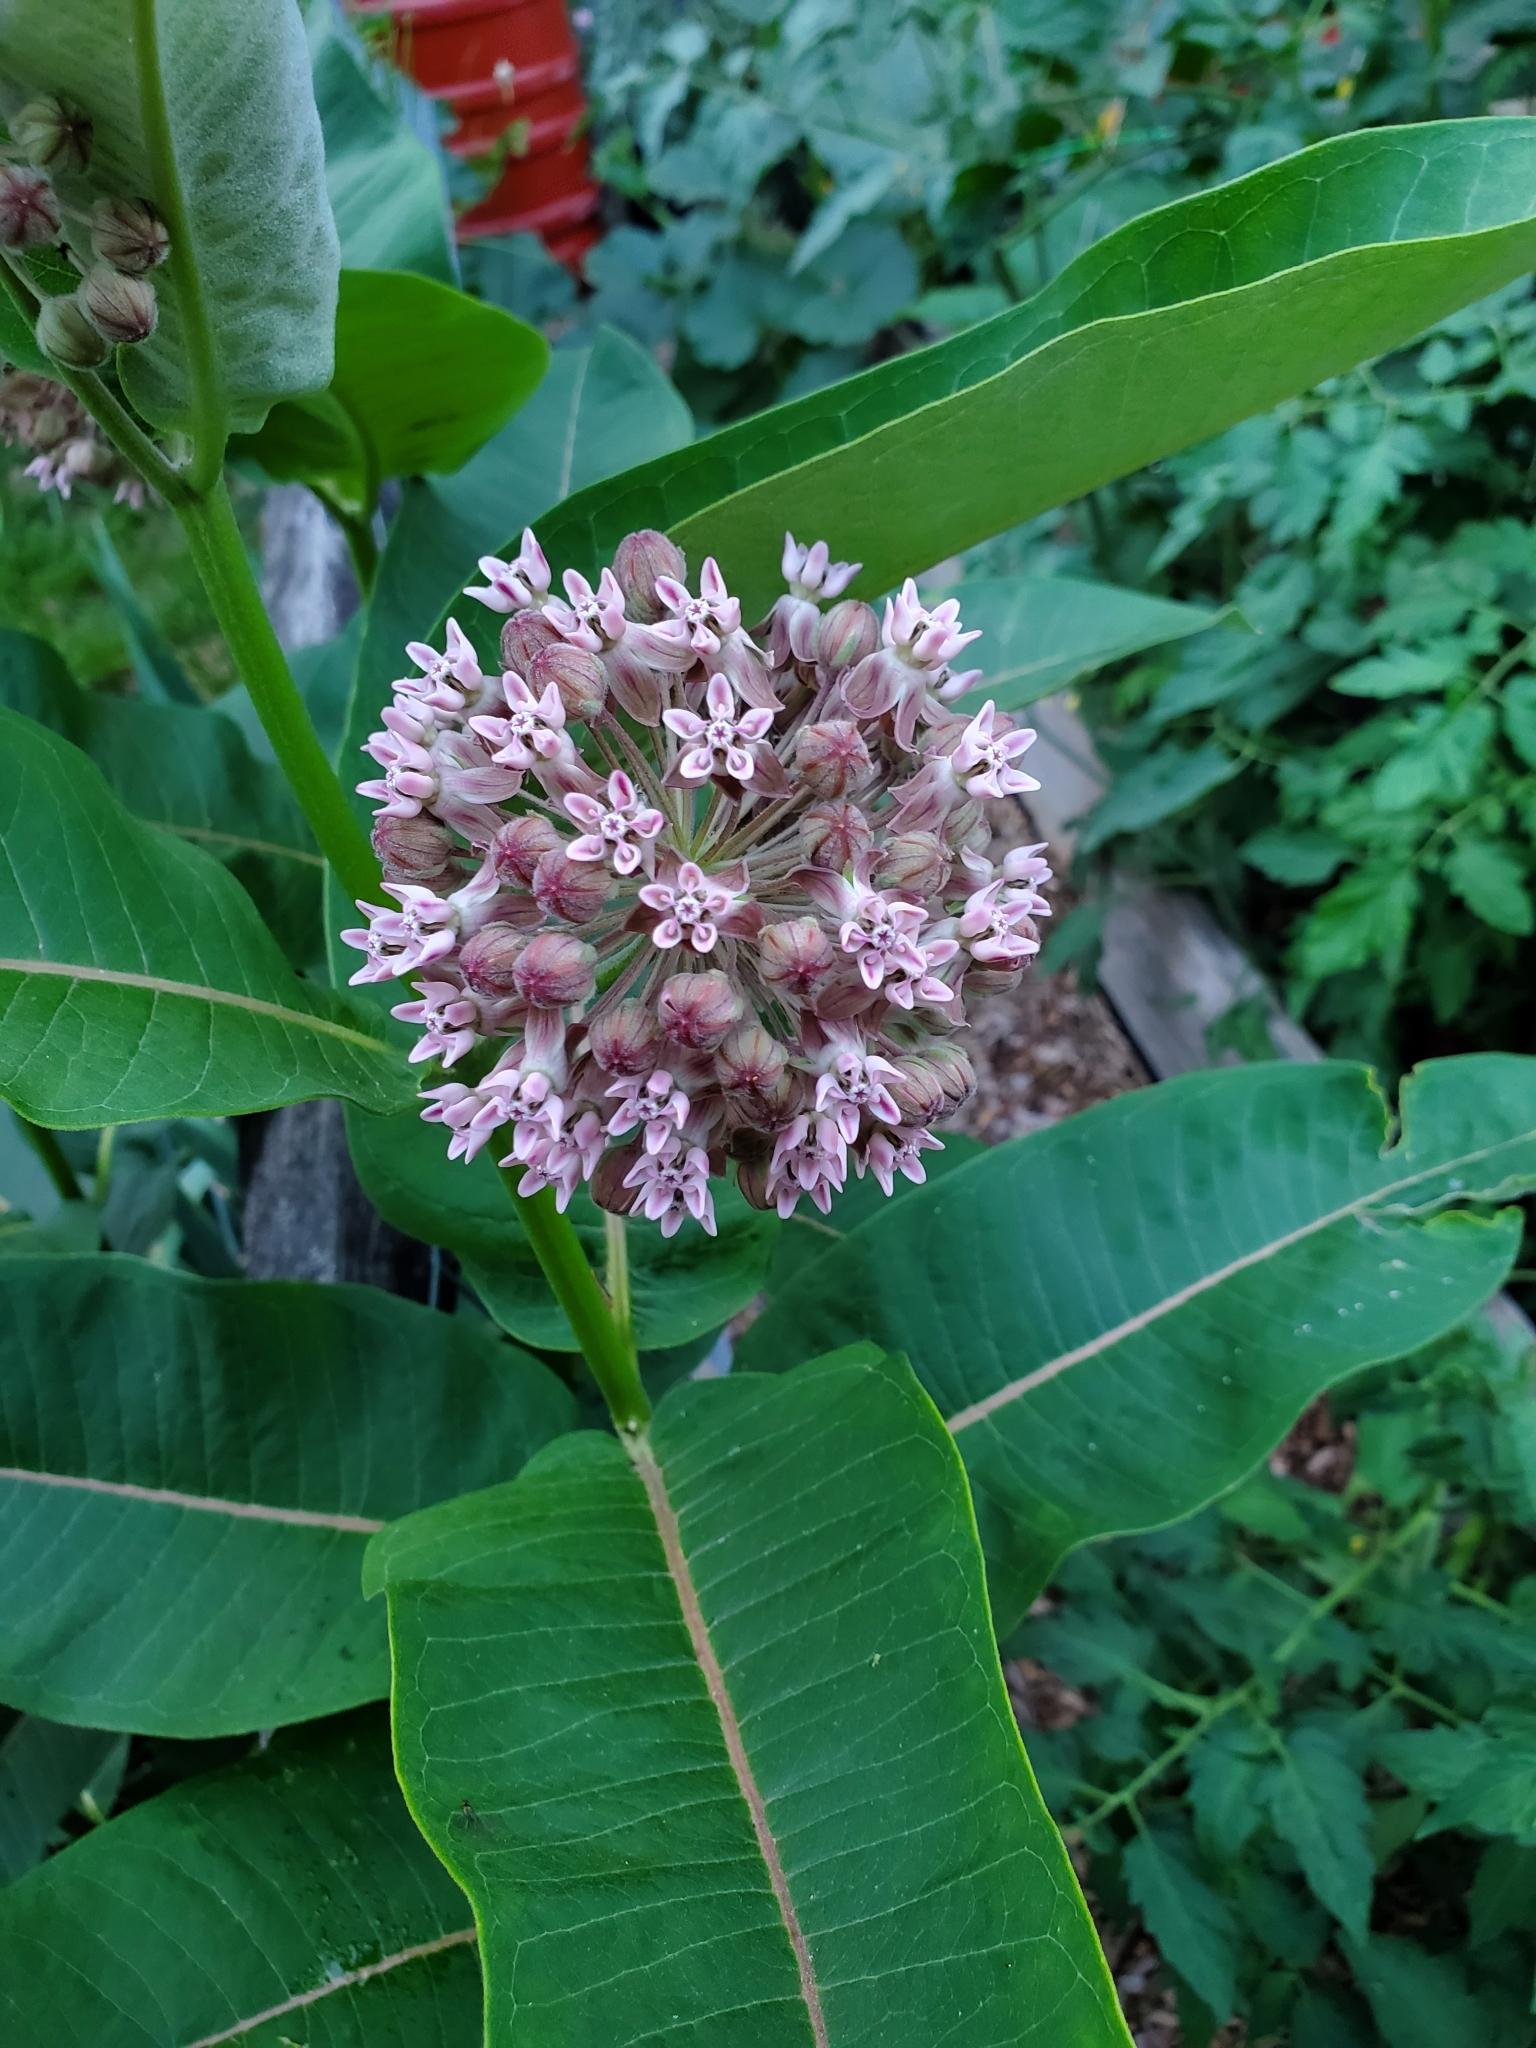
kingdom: Plantae
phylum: Tracheophyta
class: Magnoliopsida
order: Gentianales
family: Apocynaceae
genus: Asclepias
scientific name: Asclepias syriaca
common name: Common milkweed
